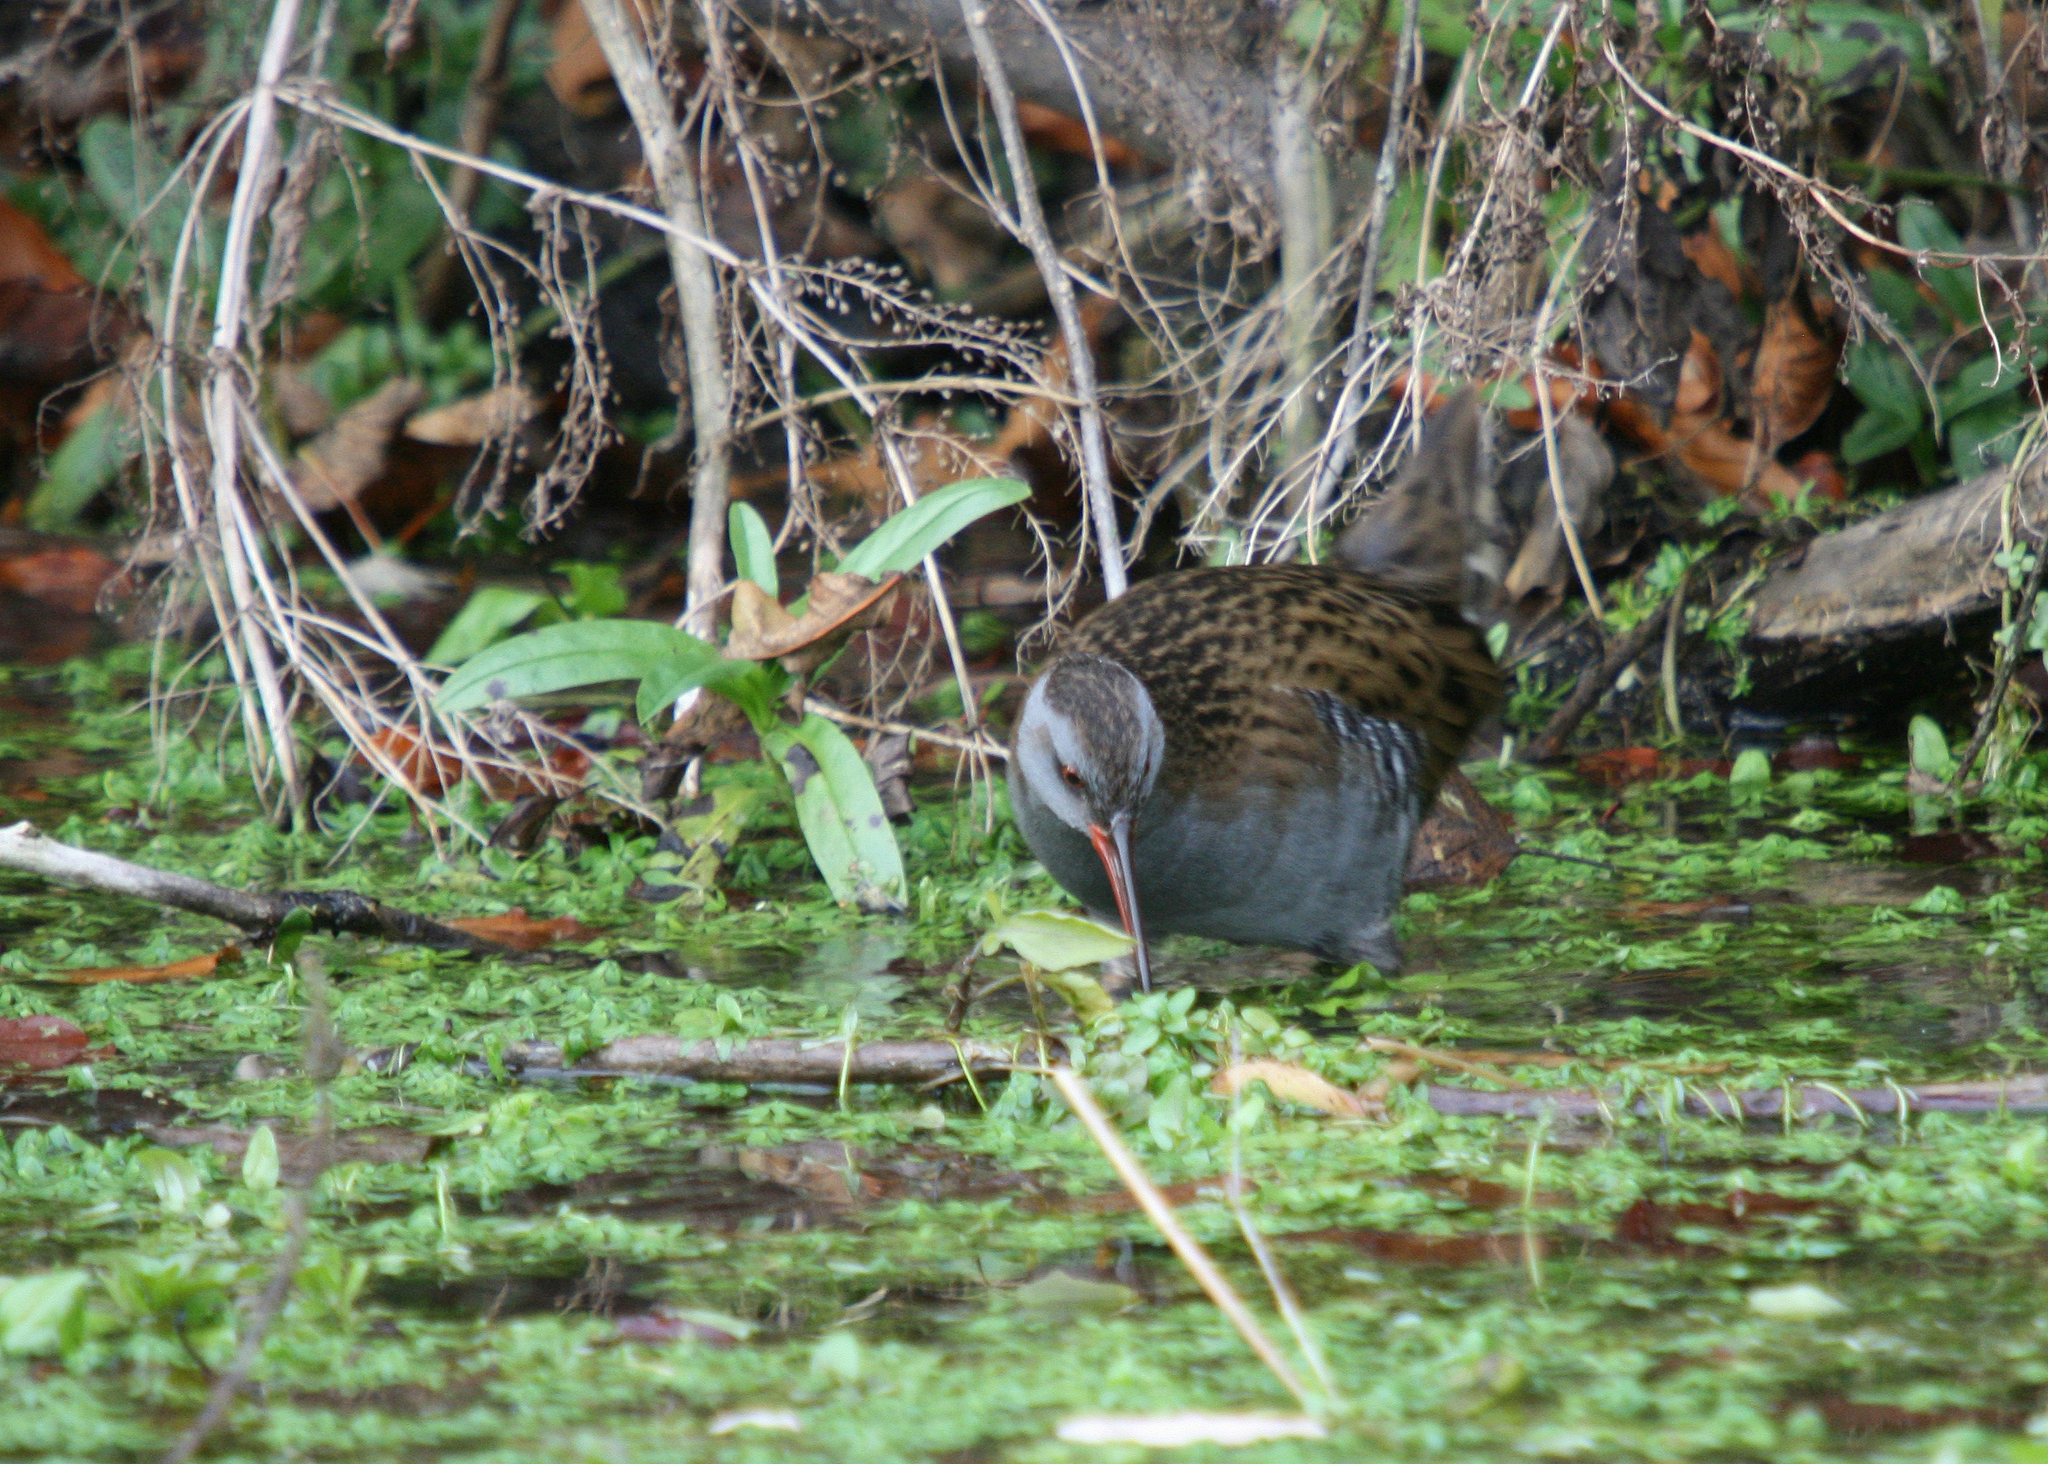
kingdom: Animalia
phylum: Chordata
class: Aves
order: Gruiformes
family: Rallidae
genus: Rallus
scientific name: Rallus aquaticus
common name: Water rail
